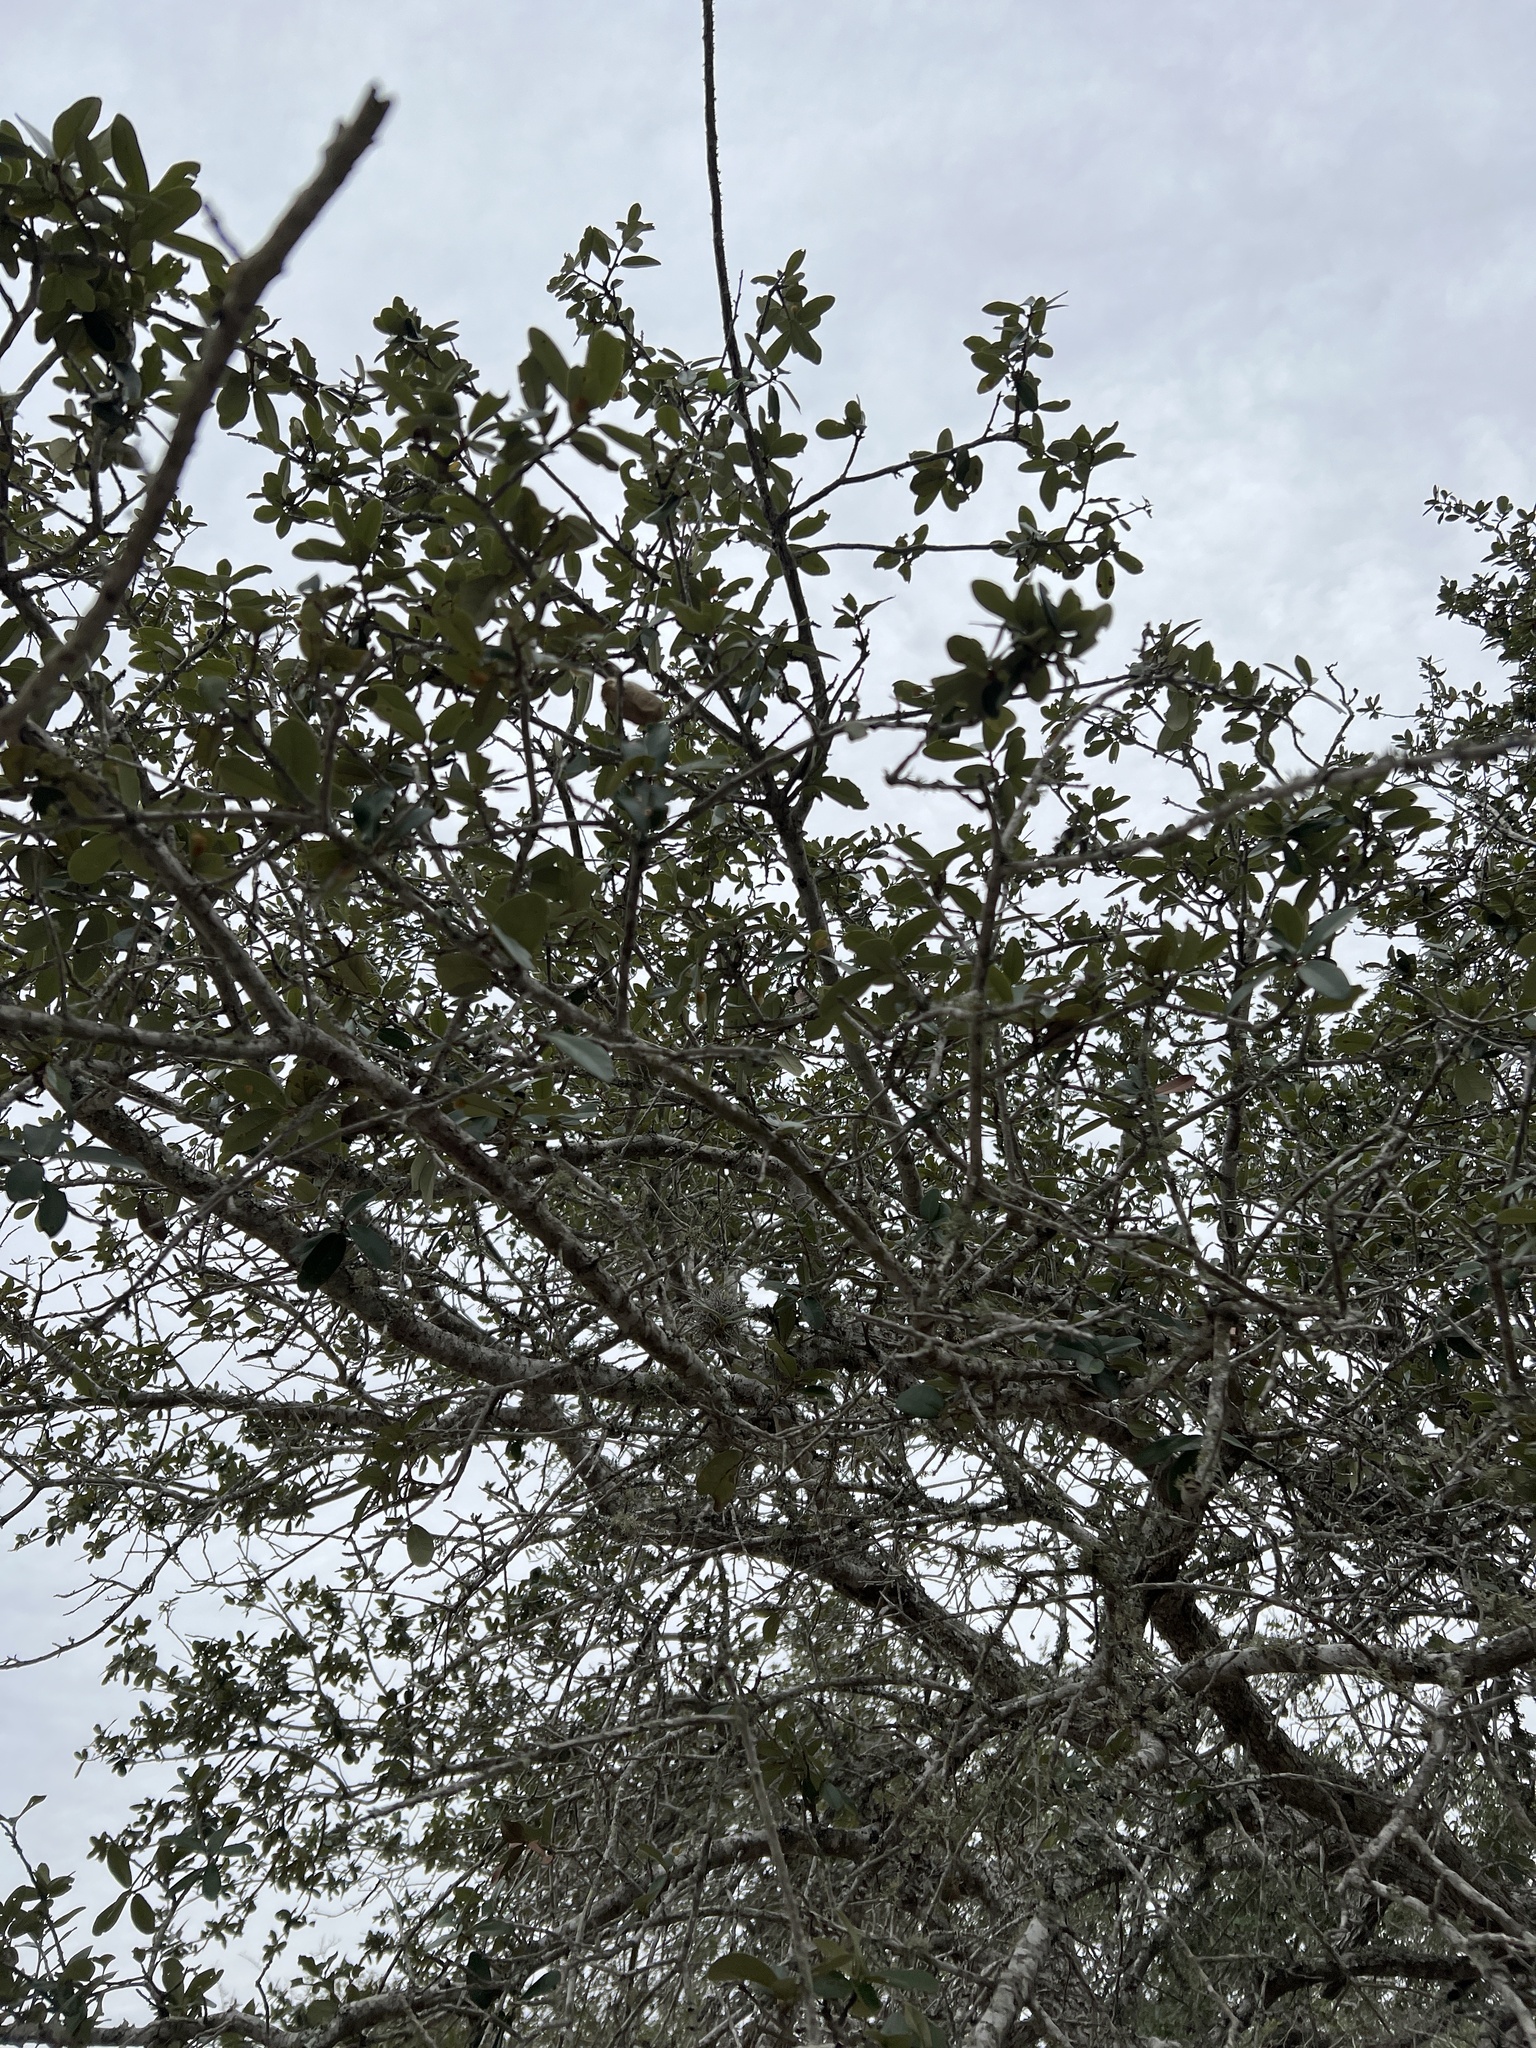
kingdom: Plantae
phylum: Tracheophyta
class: Magnoliopsida
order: Fagales
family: Fagaceae
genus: Quercus
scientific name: Quercus virginiana
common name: Southern live oak
